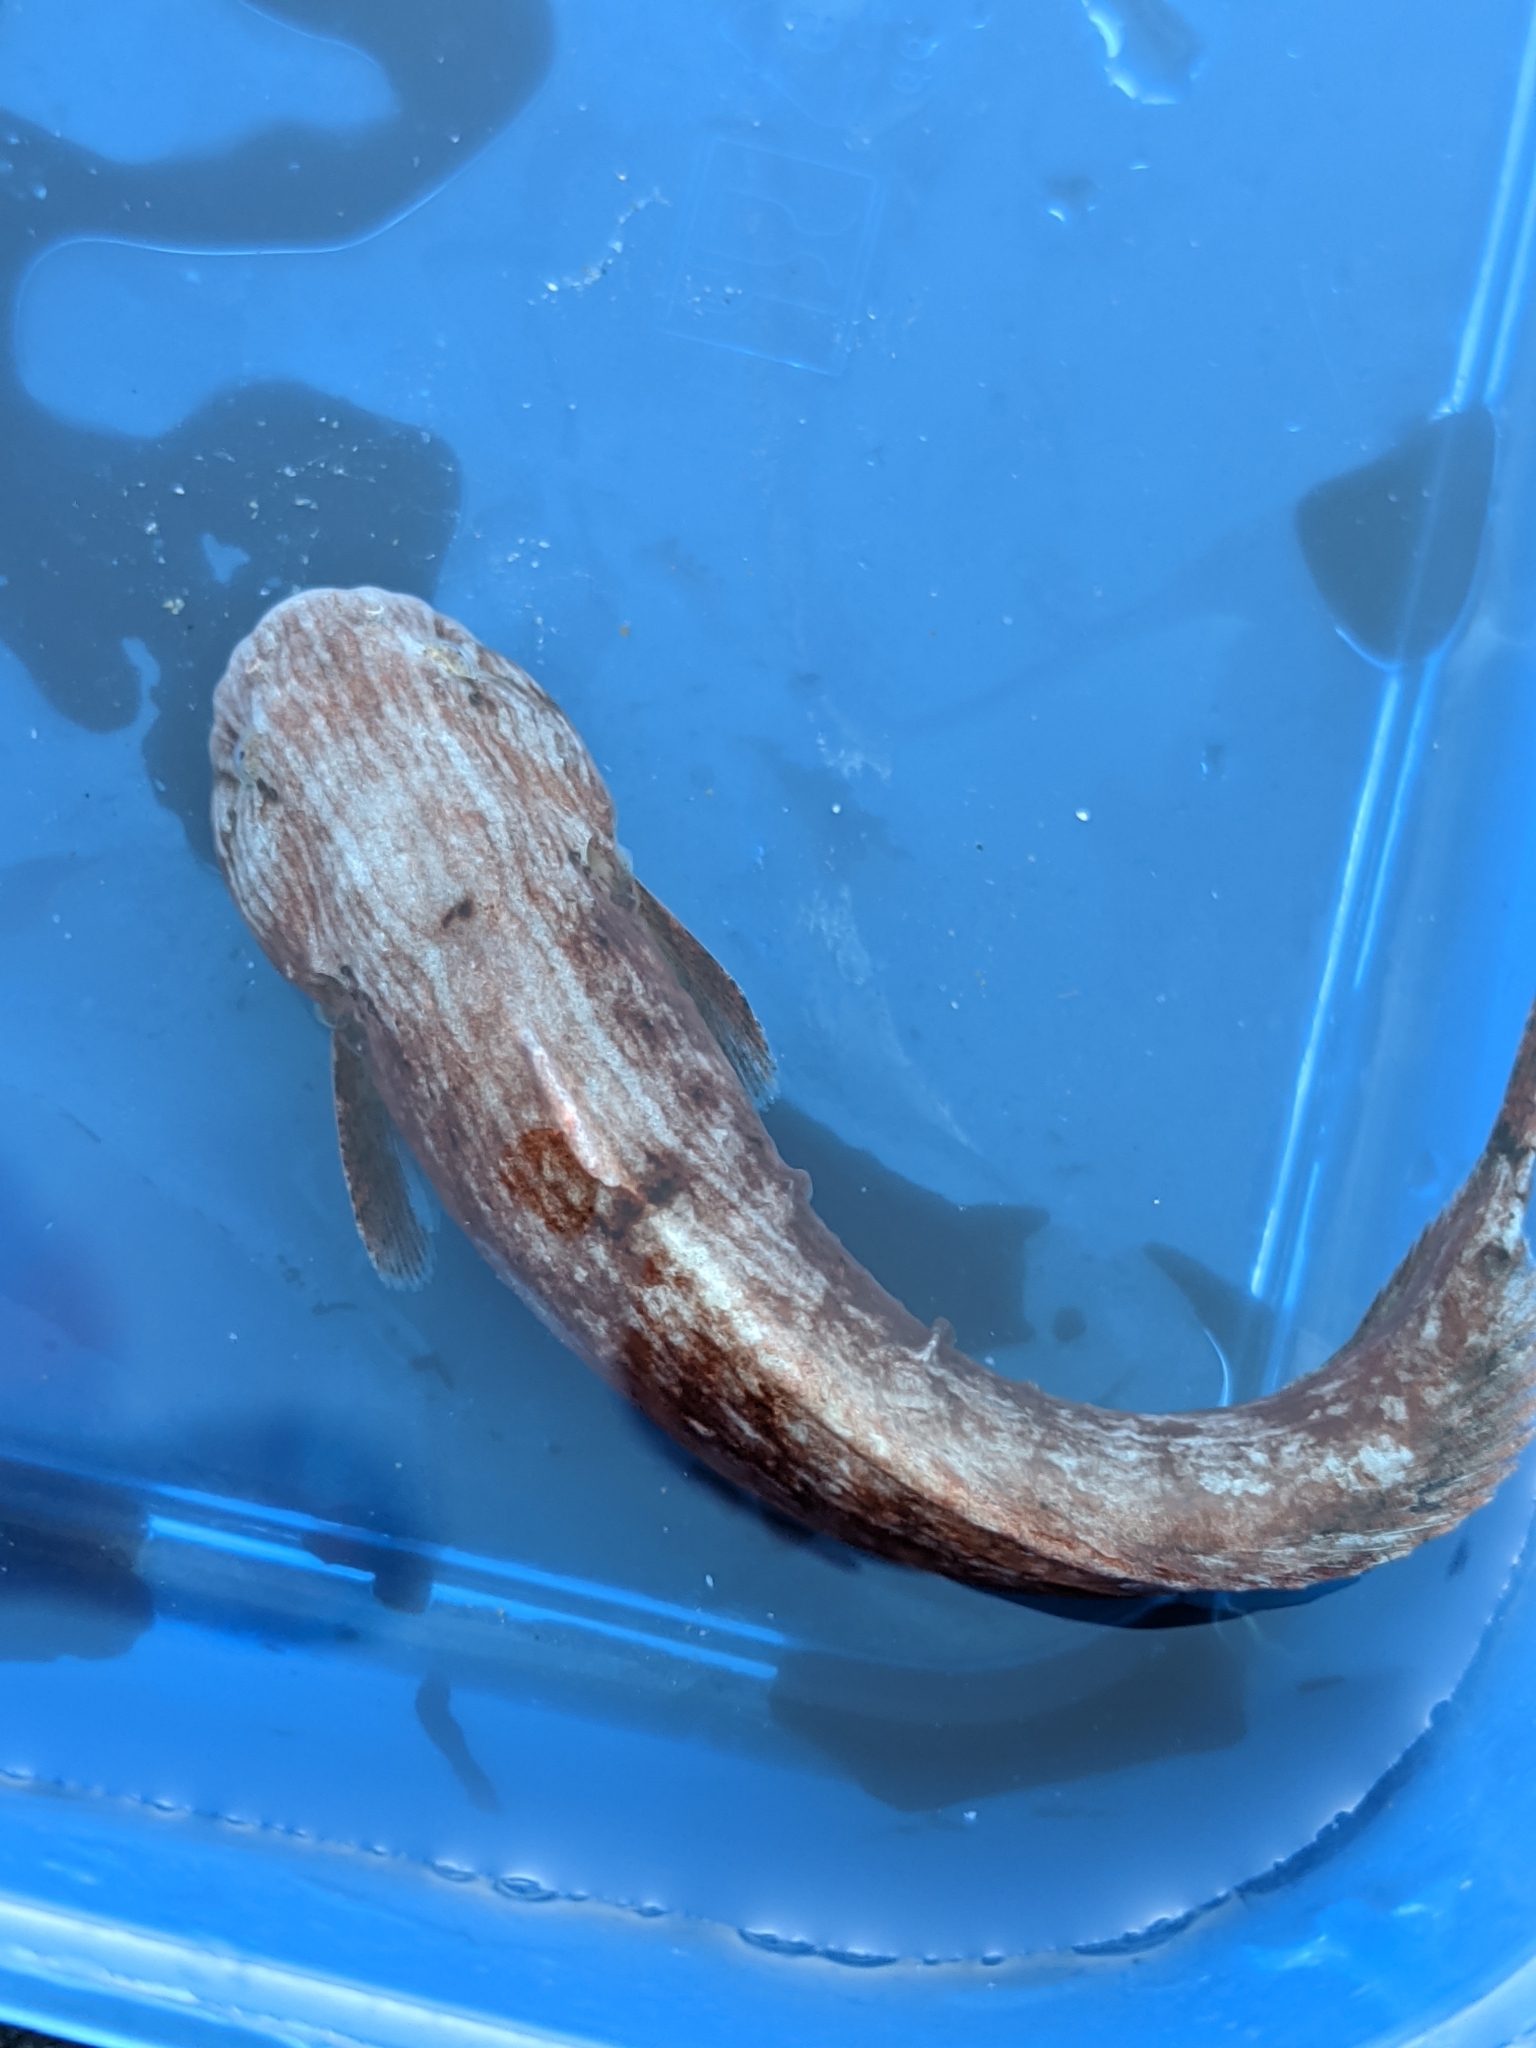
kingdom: Animalia
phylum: Chordata
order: Scorpaeniformes
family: Liparidae
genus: Liparis
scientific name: Liparis mucosus
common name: Slimy snailfish
